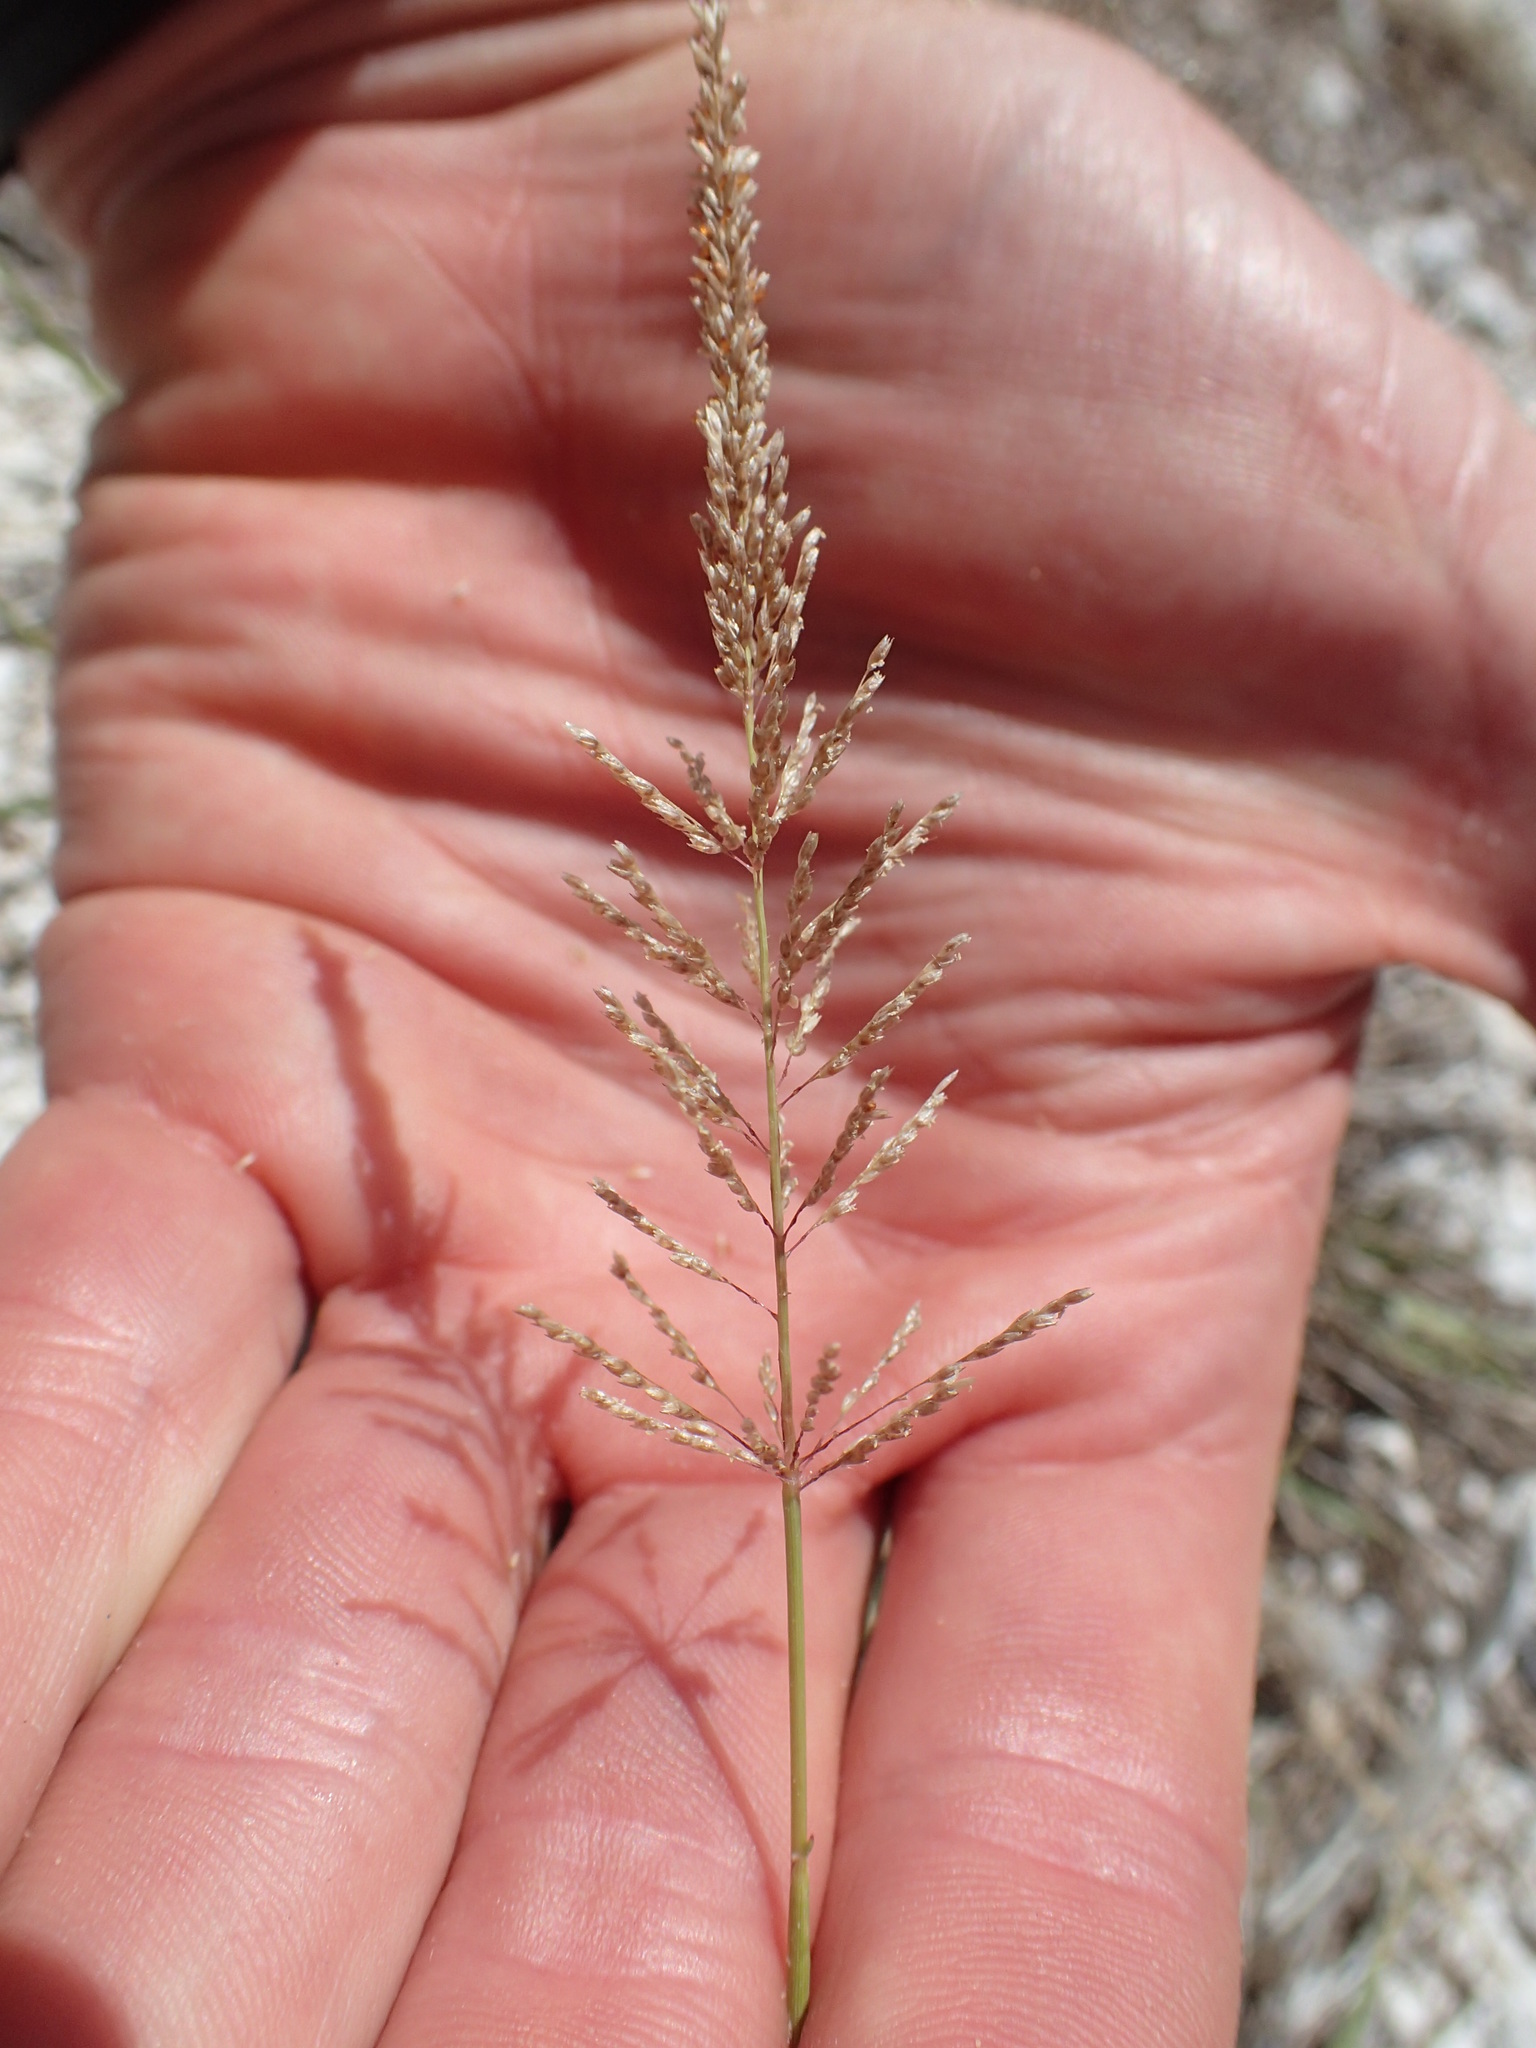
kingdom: Plantae
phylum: Tracheophyta
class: Liliopsida
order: Poales
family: Poaceae
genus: Sporobolus
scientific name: Sporobolus pyramidatus
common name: Whorled dropseed
